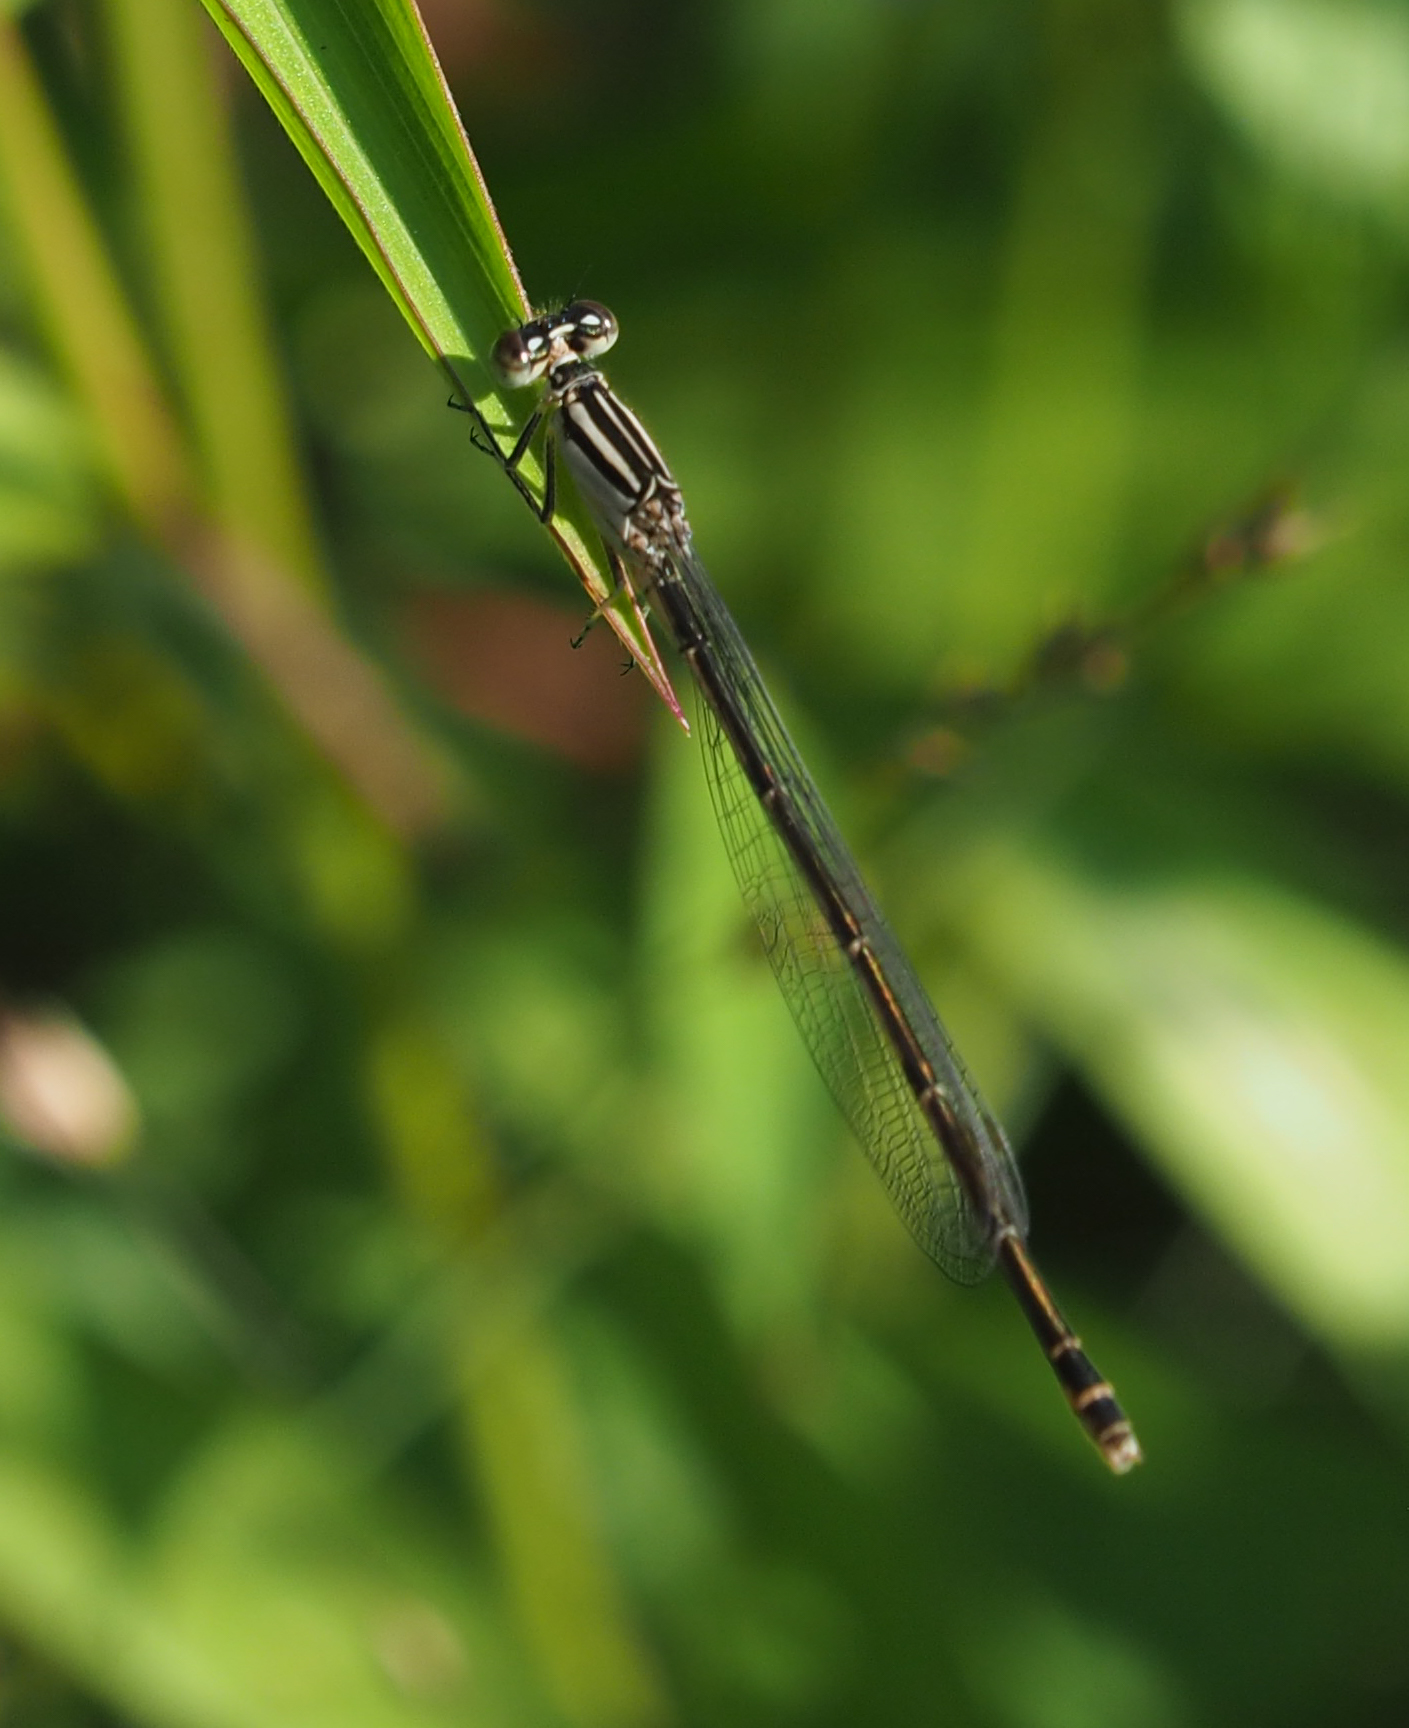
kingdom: Animalia
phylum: Arthropoda
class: Insecta
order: Odonata
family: Coenagrionidae
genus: Enallagma
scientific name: Enallagma durum
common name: Big bluet
